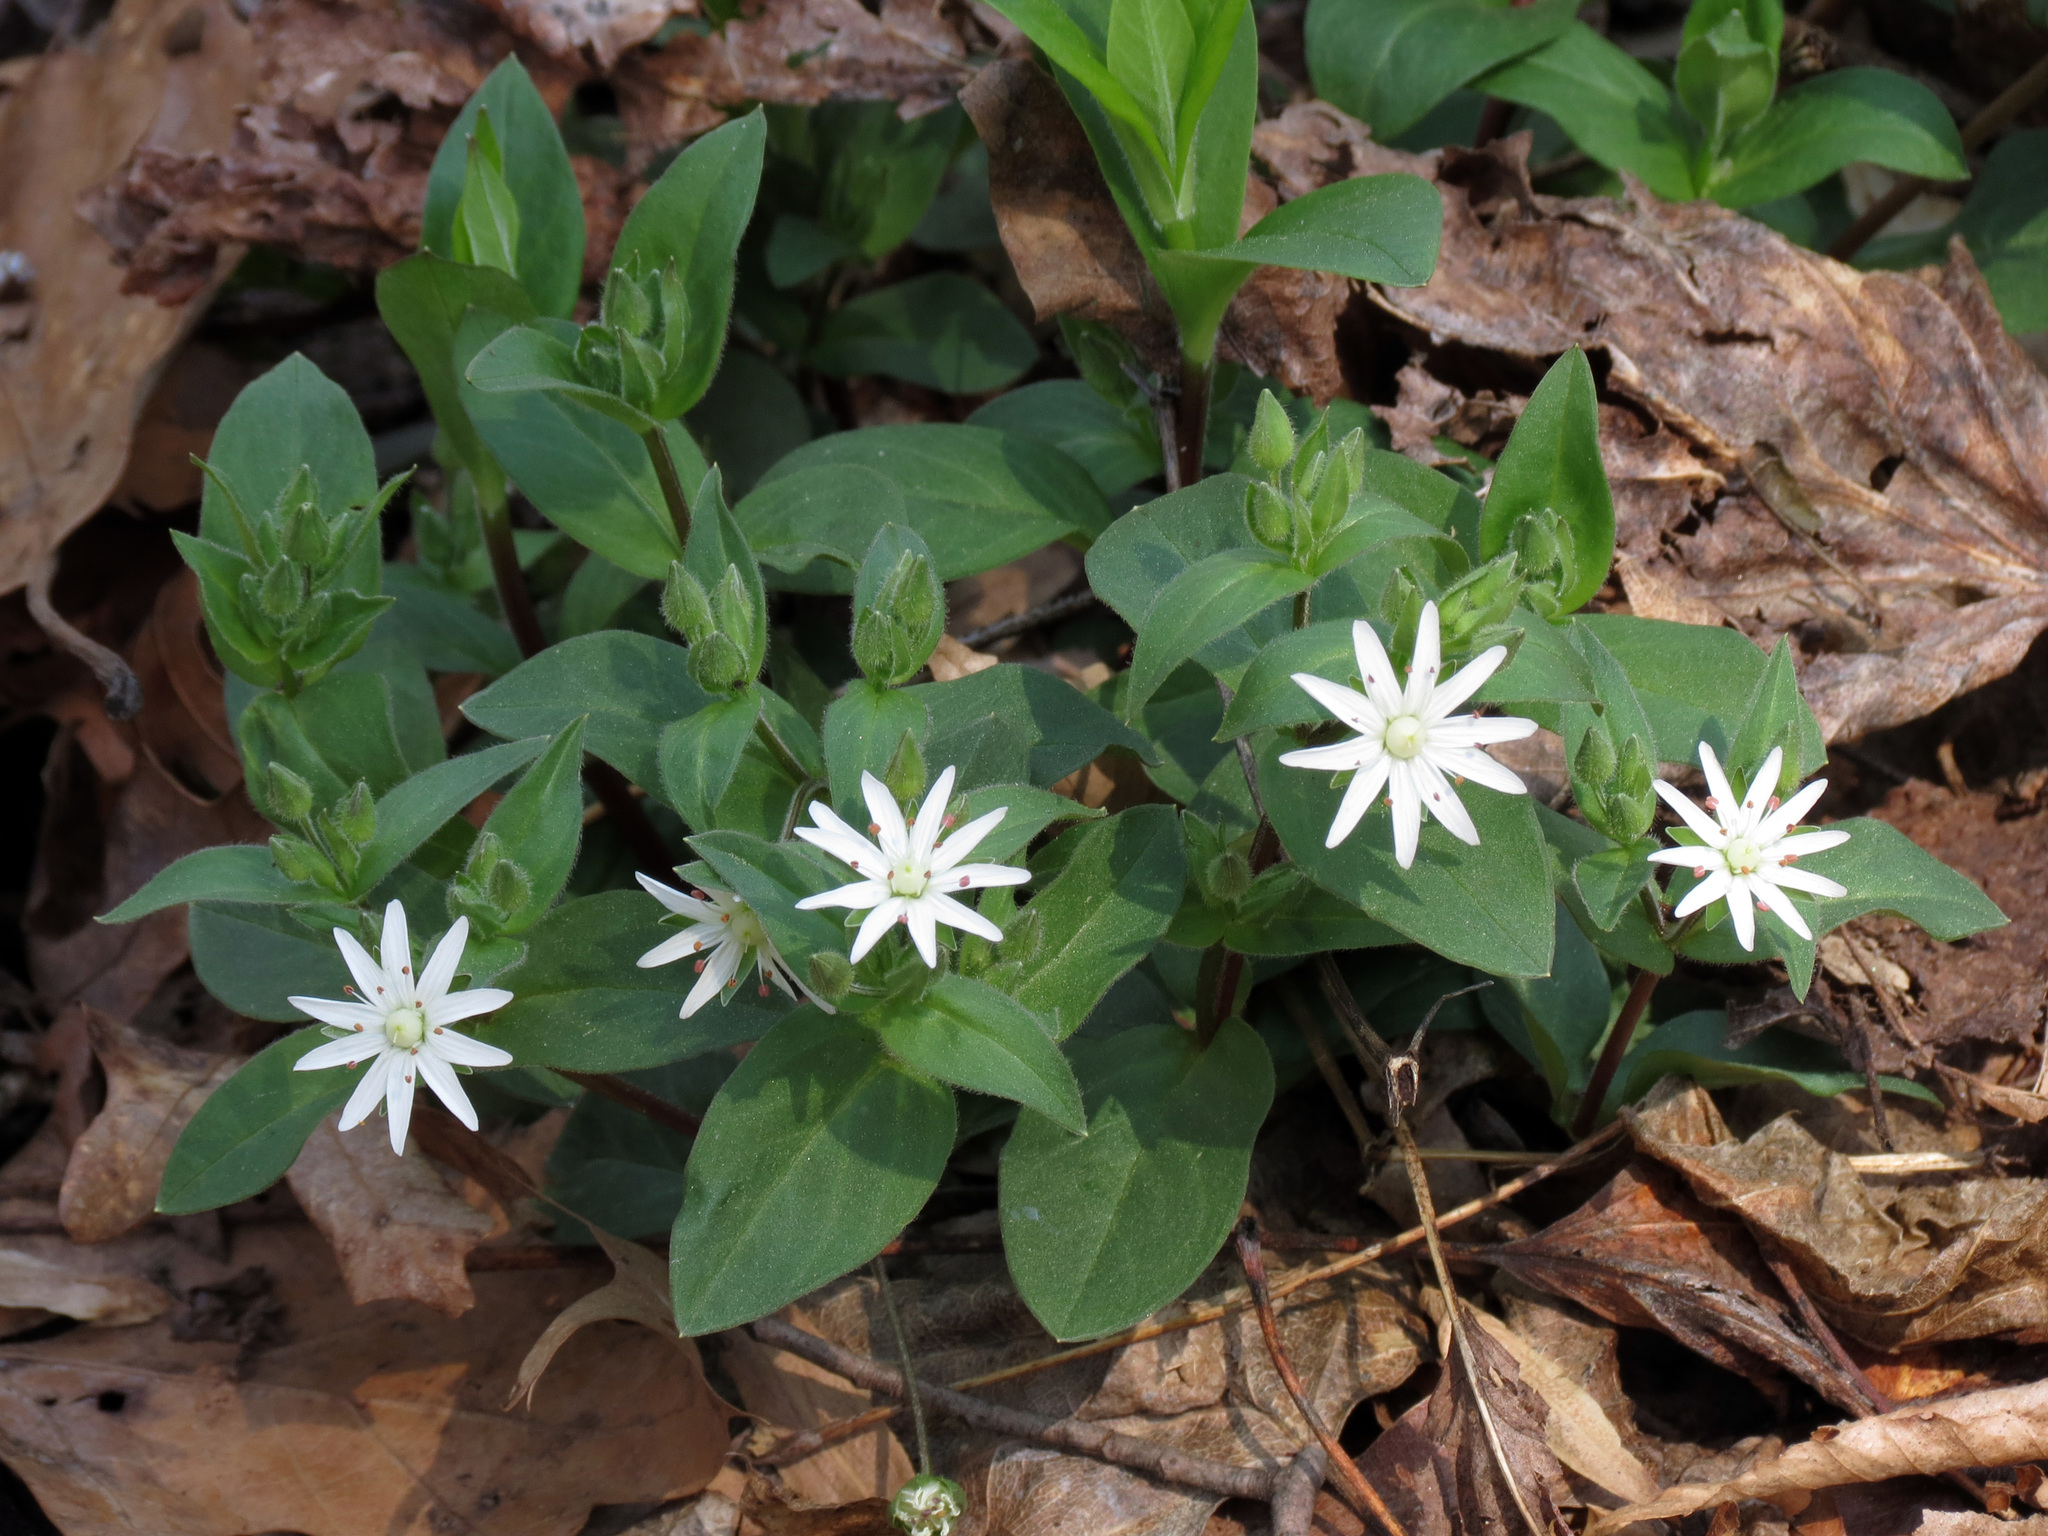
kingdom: Plantae
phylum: Tracheophyta
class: Magnoliopsida
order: Caryophyllales
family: Caryophyllaceae
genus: Stellaria
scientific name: Stellaria pubera
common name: Star chickweed
